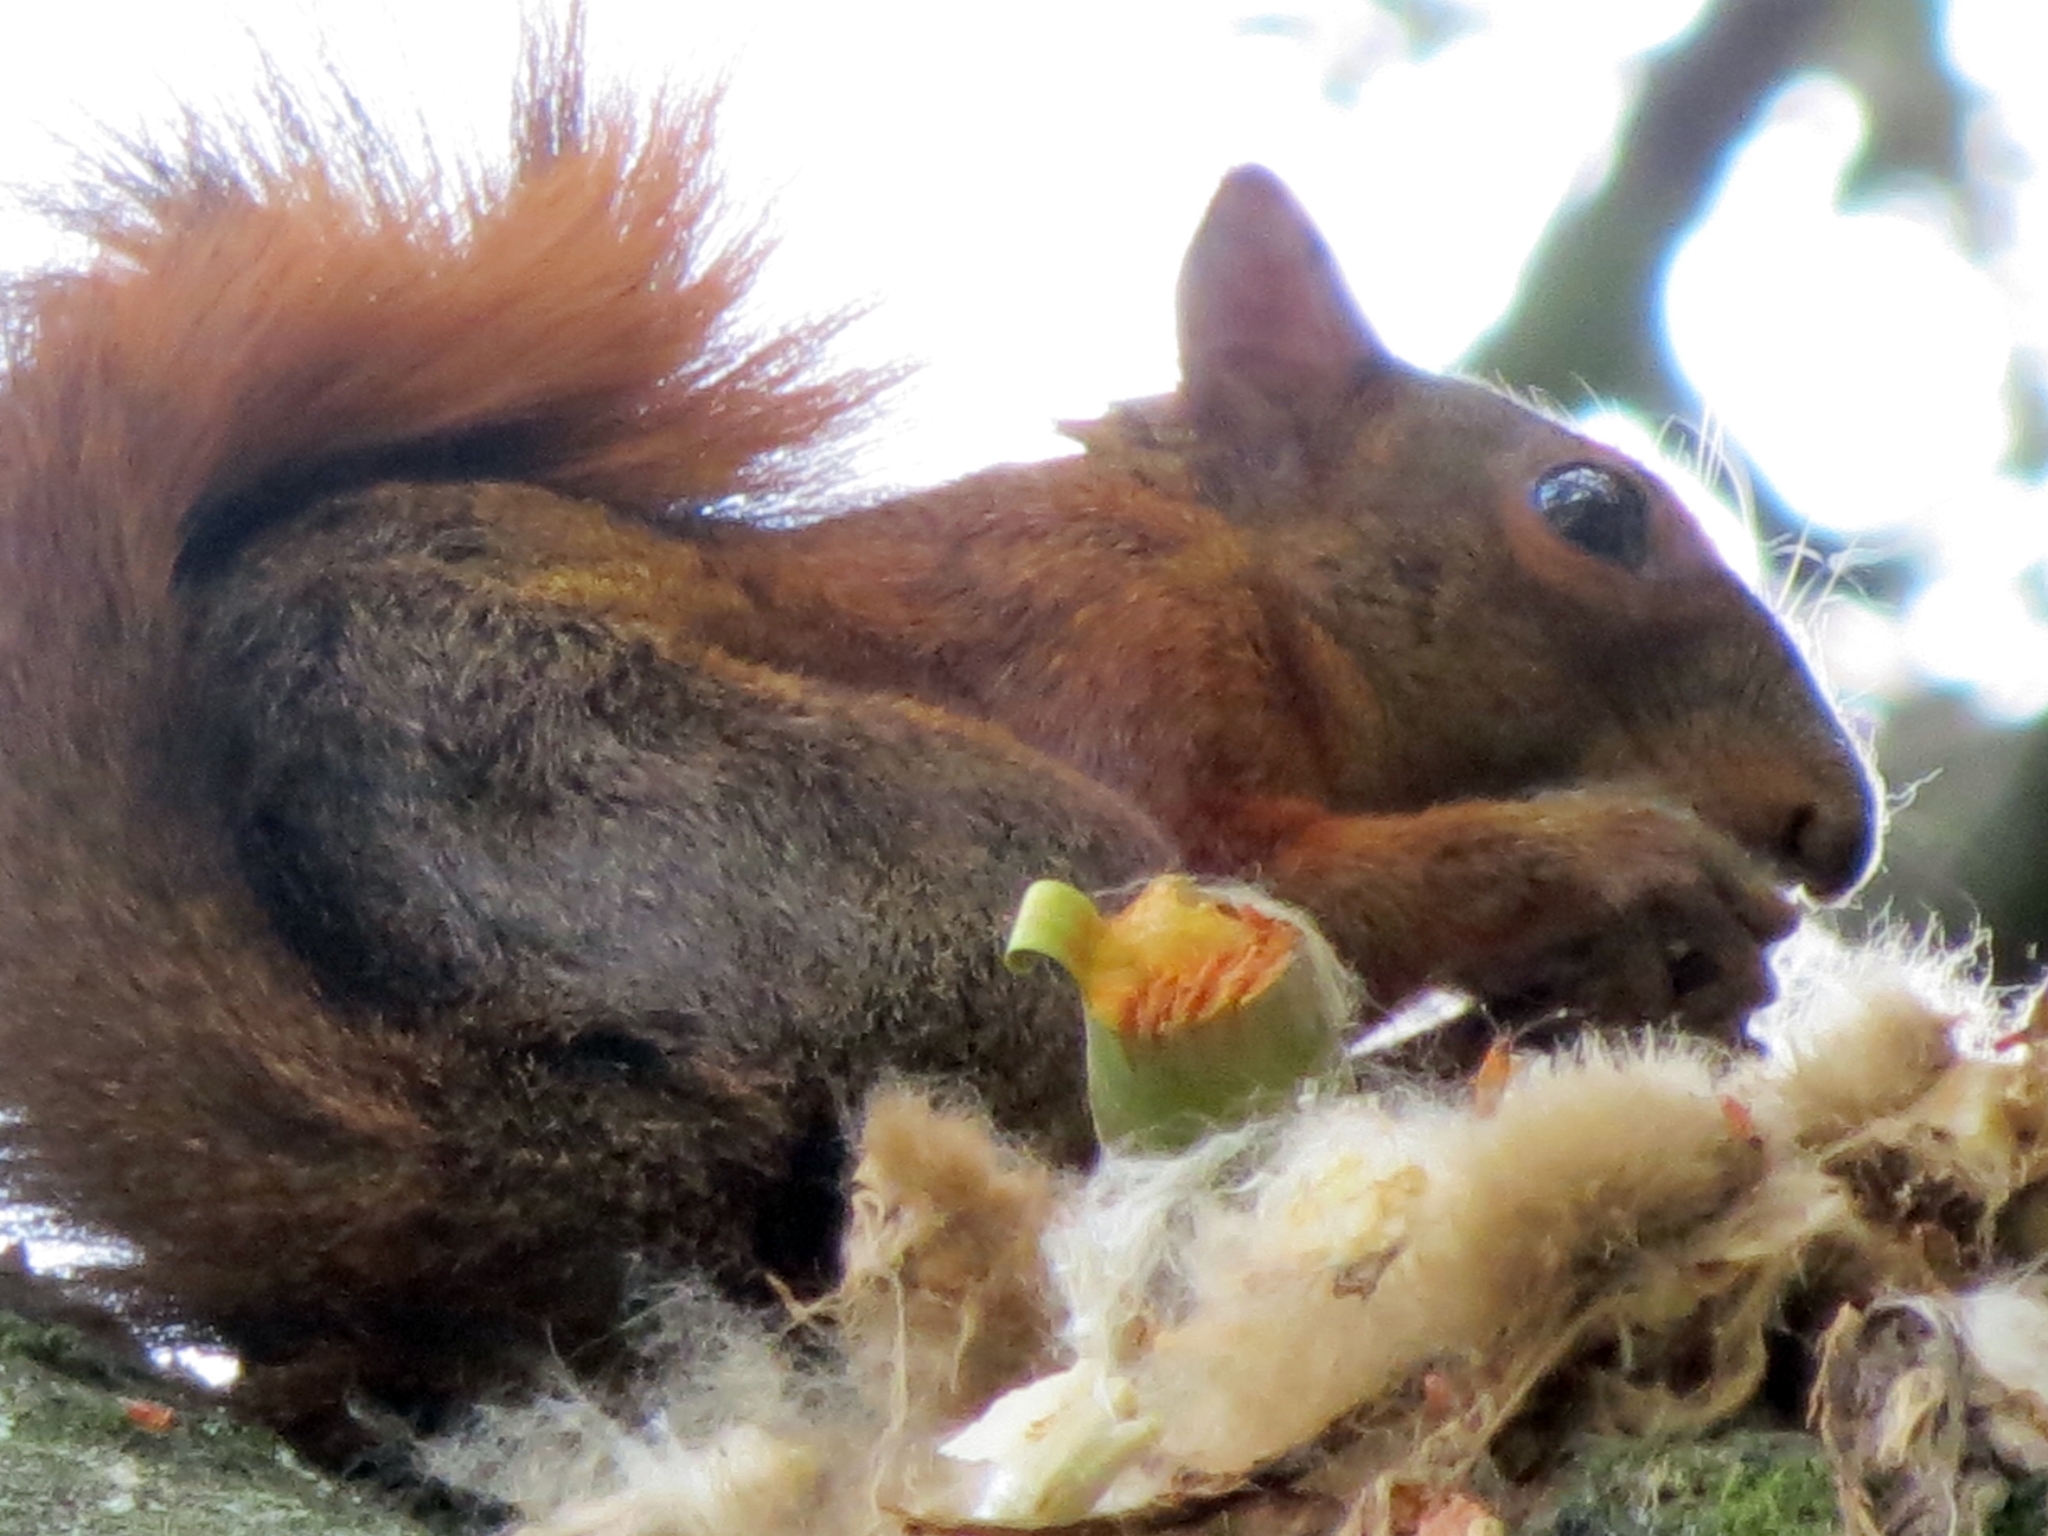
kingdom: Animalia
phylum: Chordata
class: Mammalia
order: Rodentia
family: Sciuridae
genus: Sciurus
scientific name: Sciurus granatensis
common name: Red-tailed squirrel
